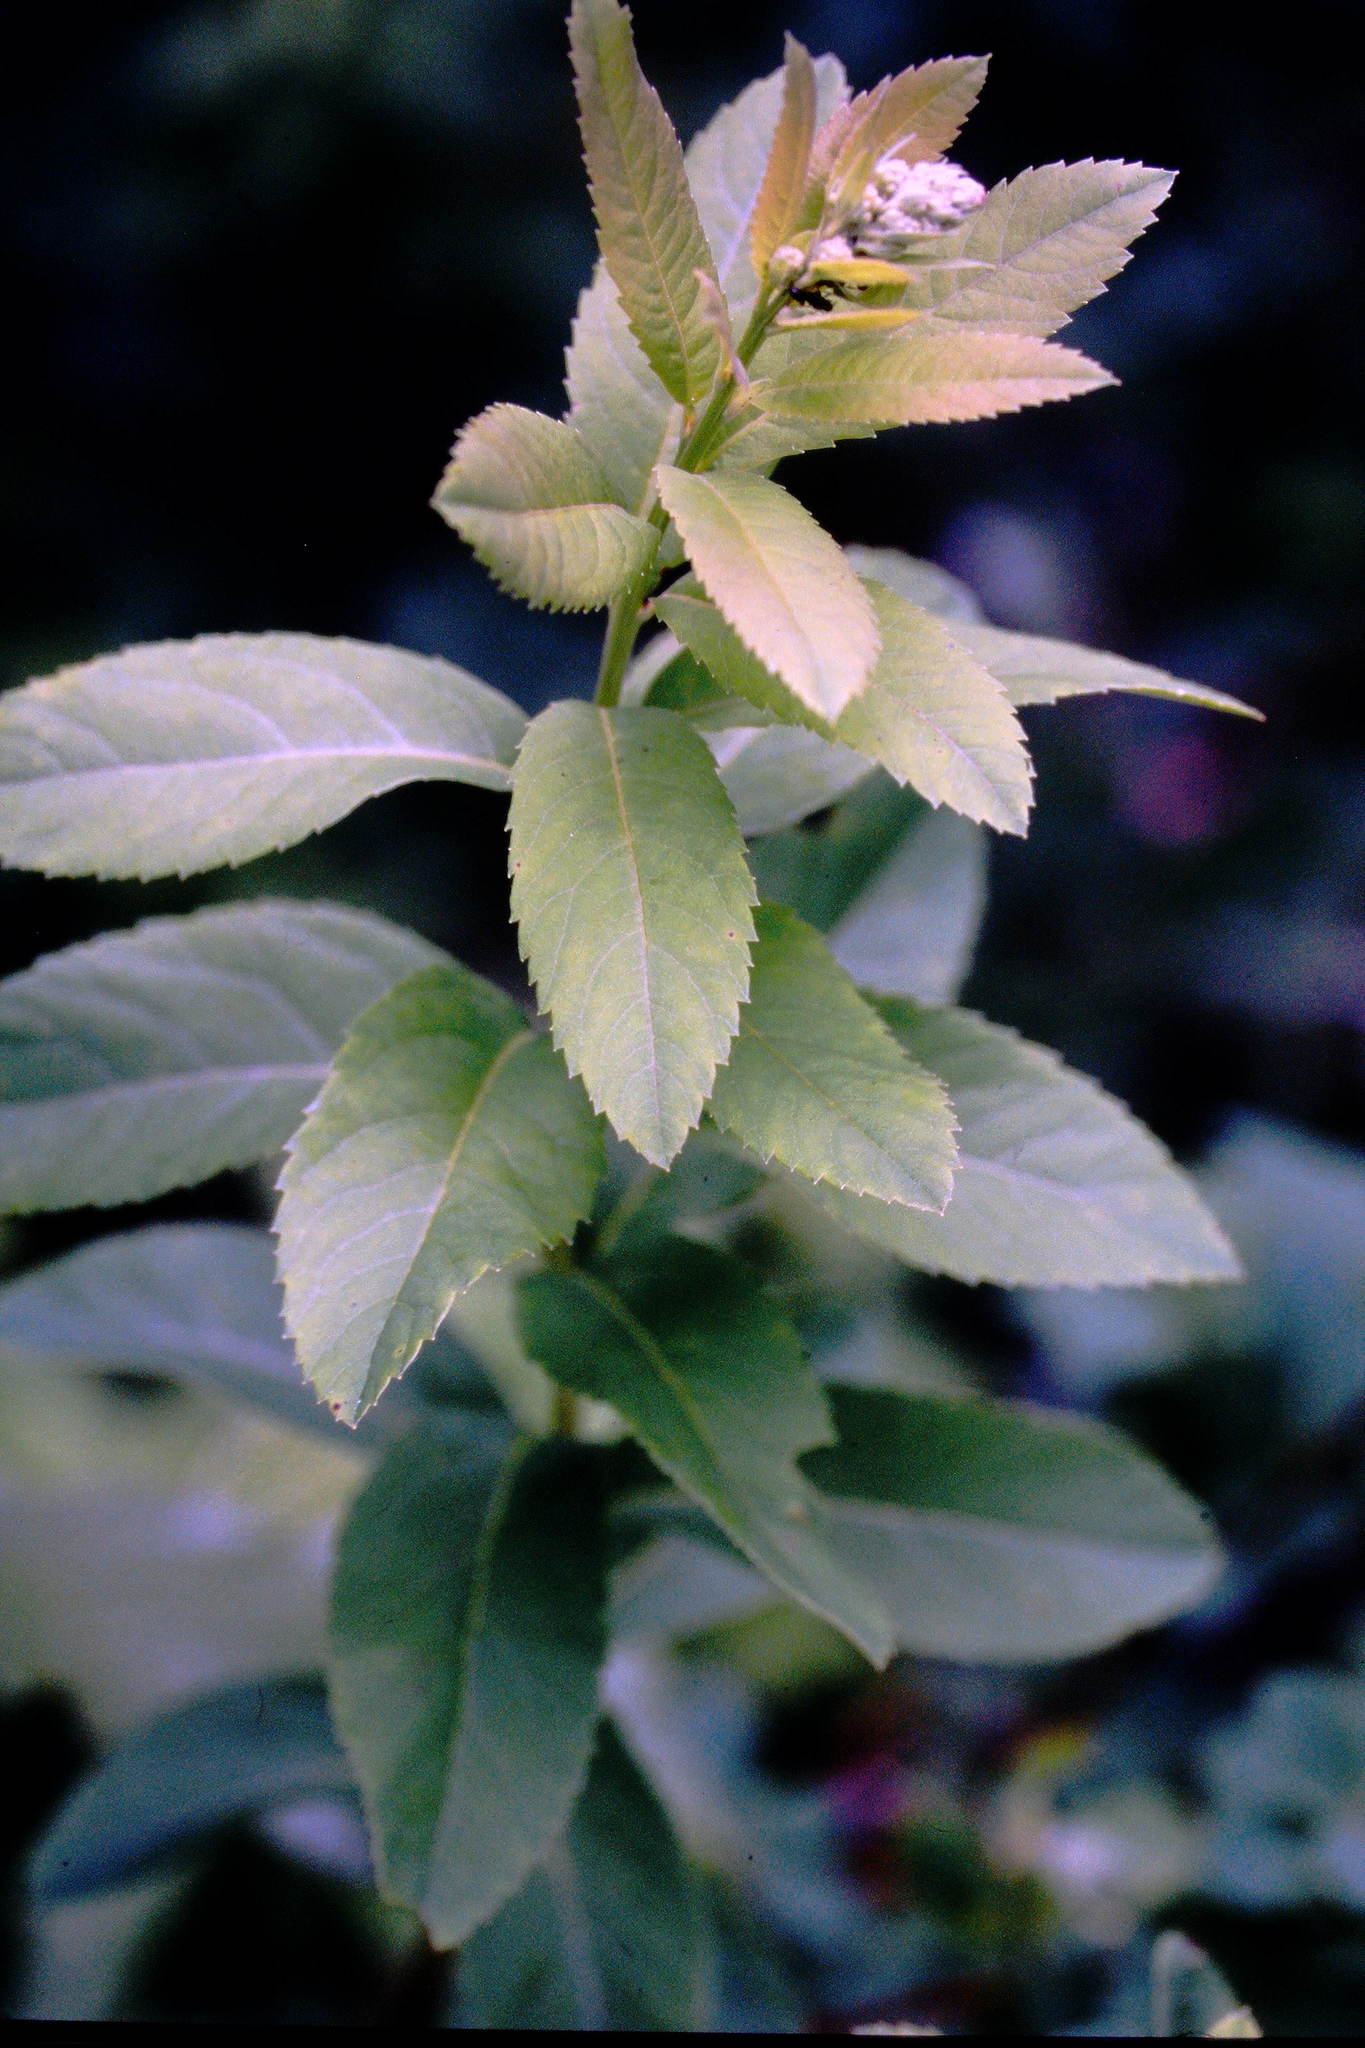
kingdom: Plantae
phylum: Tracheophyta
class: Magnoliopsida
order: Rosales
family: Rosaceae
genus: Spiraea
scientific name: Spiraea alba
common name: Pale bridewort
